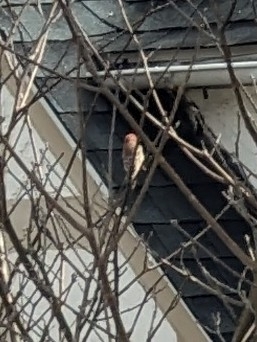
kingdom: Animalia
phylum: Chordata
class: Aves
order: Passeriformes
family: Fringillidae
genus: Haemorhous
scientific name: Haemorhous mexicanus
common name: House finch
